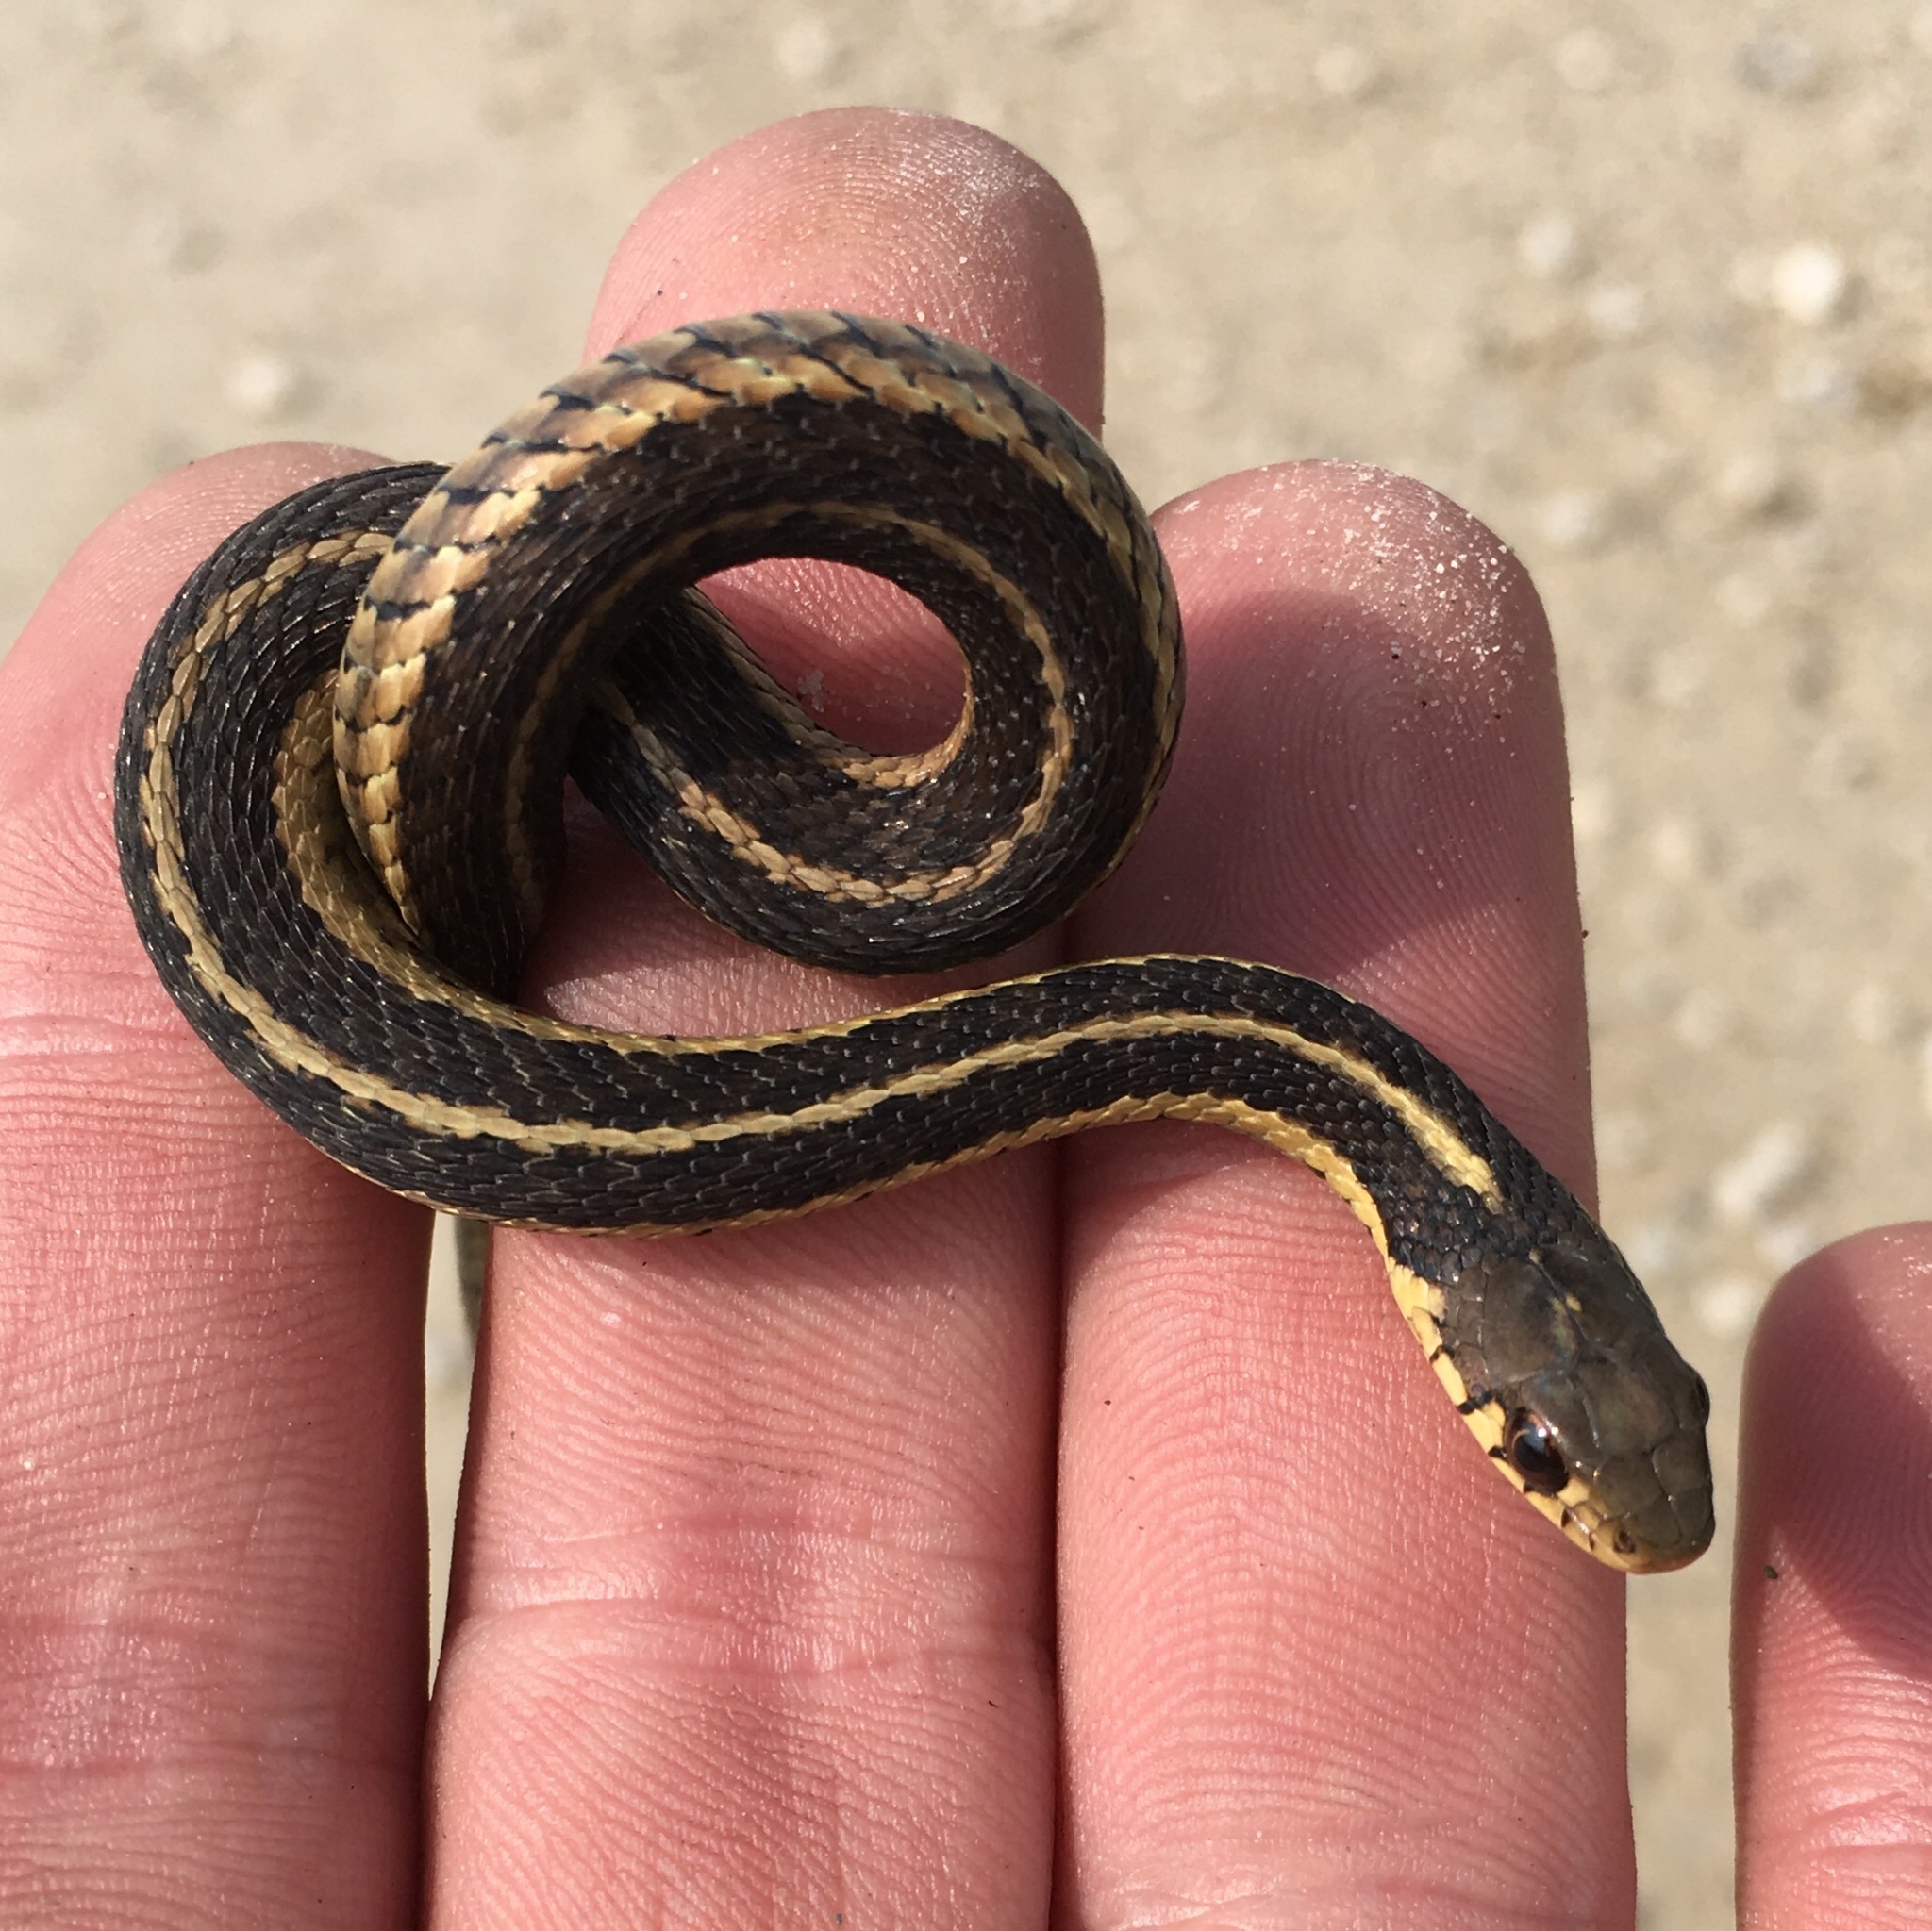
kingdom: Animalia
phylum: Chordata
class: Squamata
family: Colubridae
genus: Thamnophis
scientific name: Thamnophis sirtalis
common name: Common garter snake
